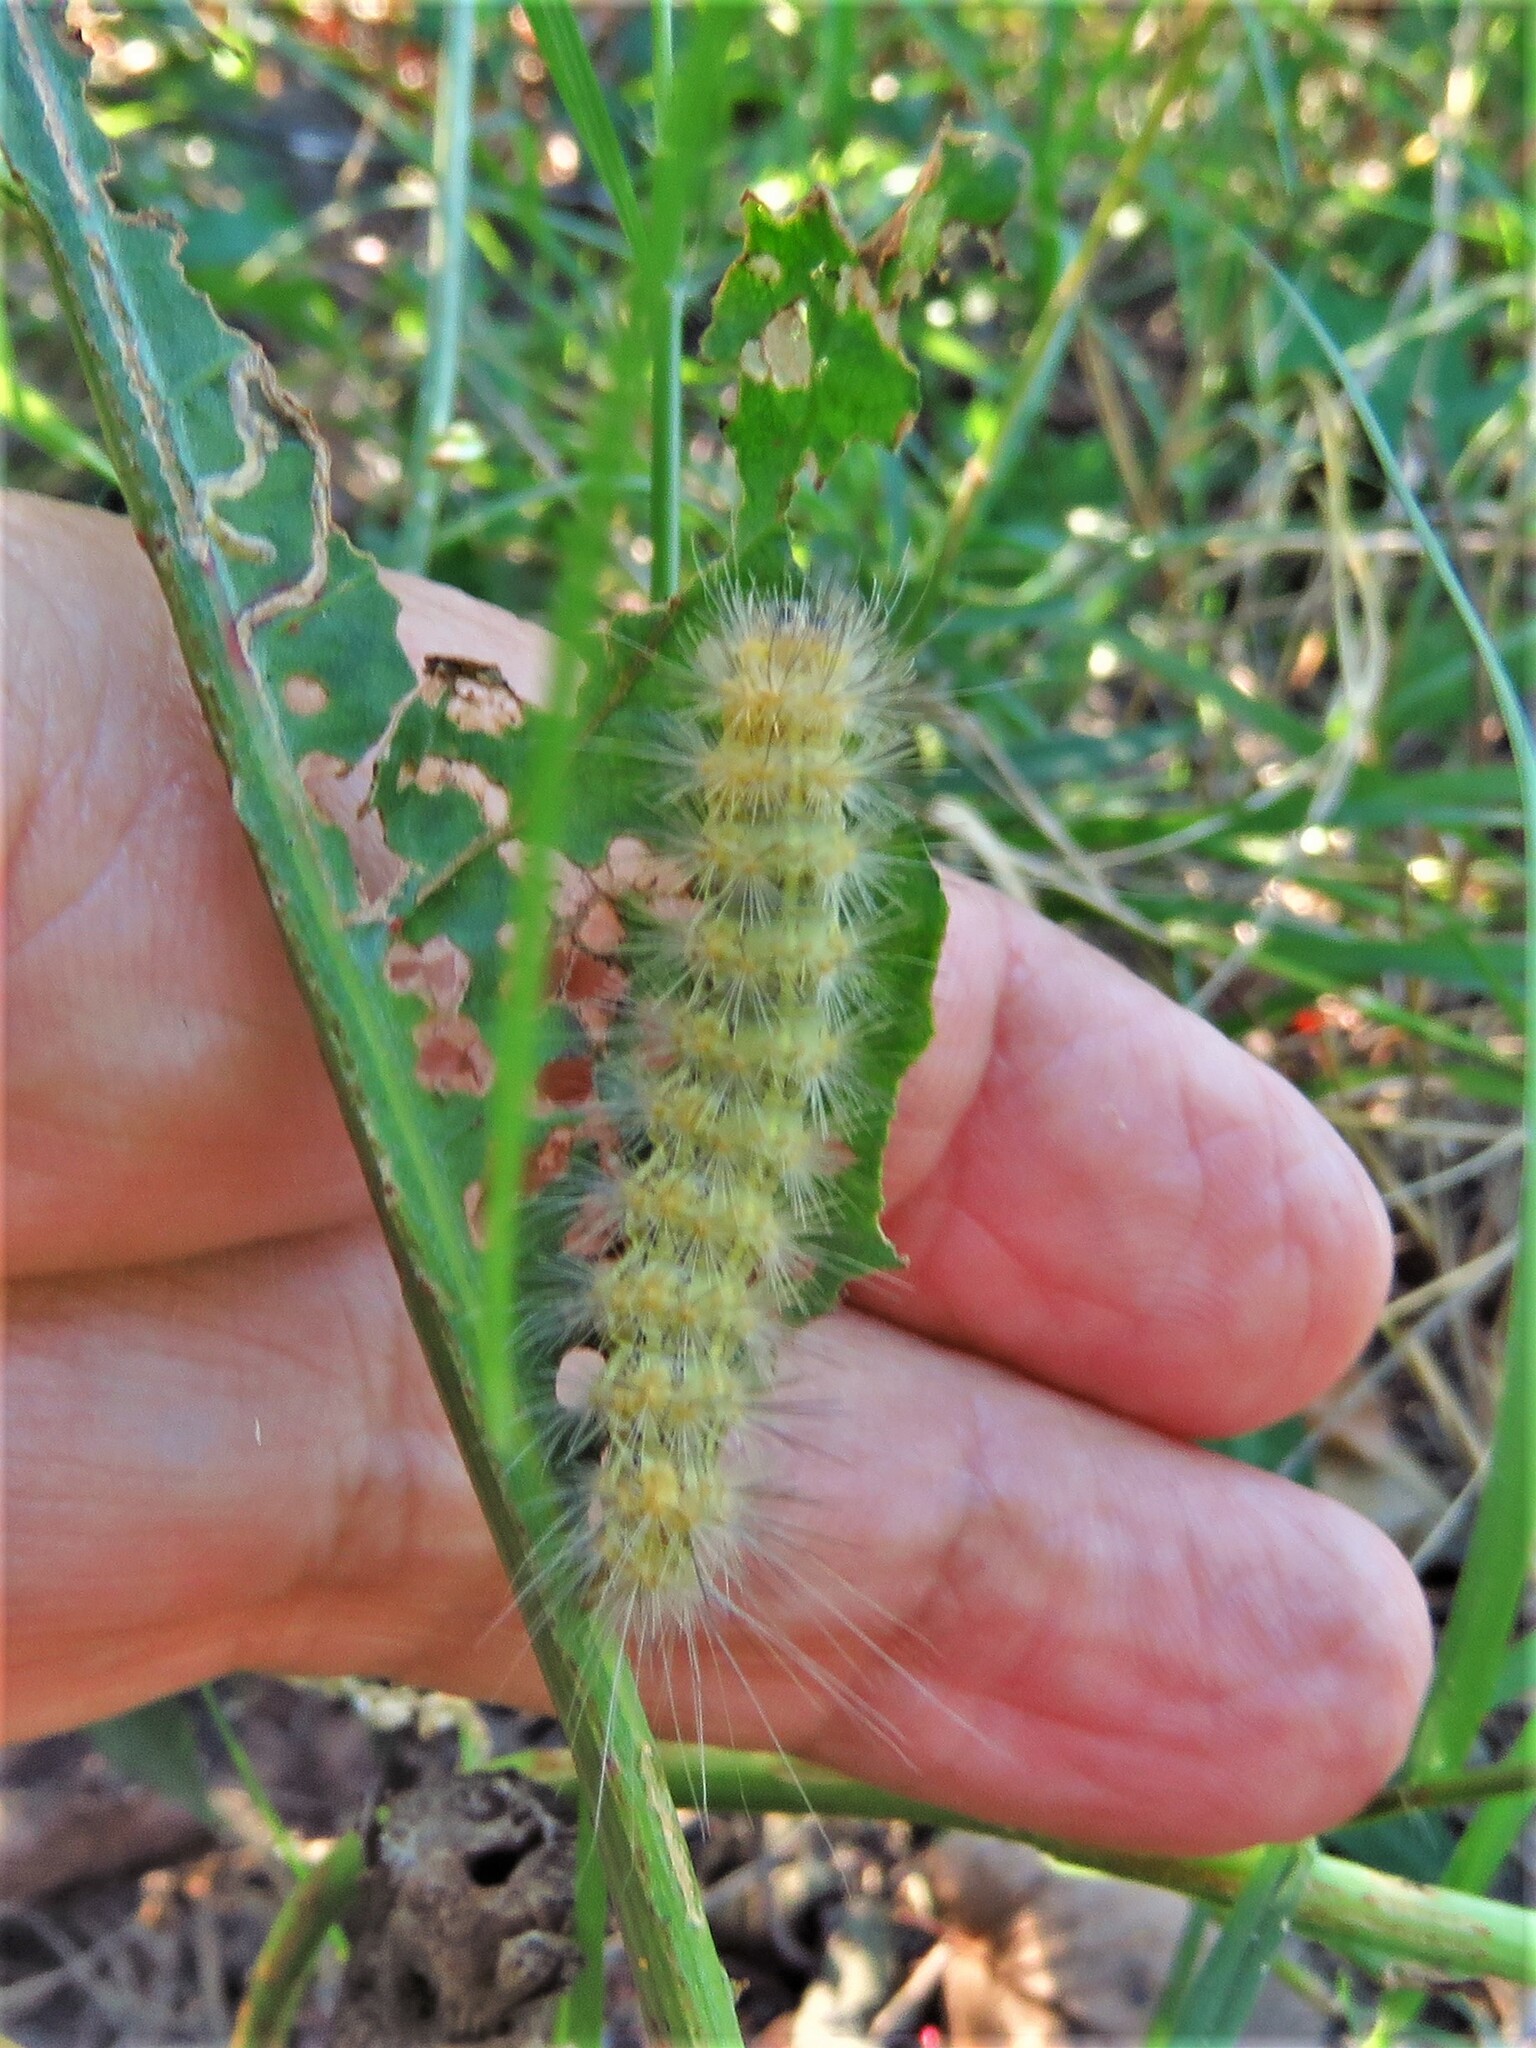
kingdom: Animalia
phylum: Arthropoda
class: Insecta
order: Lepidoptera
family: Erebidae
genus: Estigmene
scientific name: Estigmene acrea
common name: Salt marsh moth
